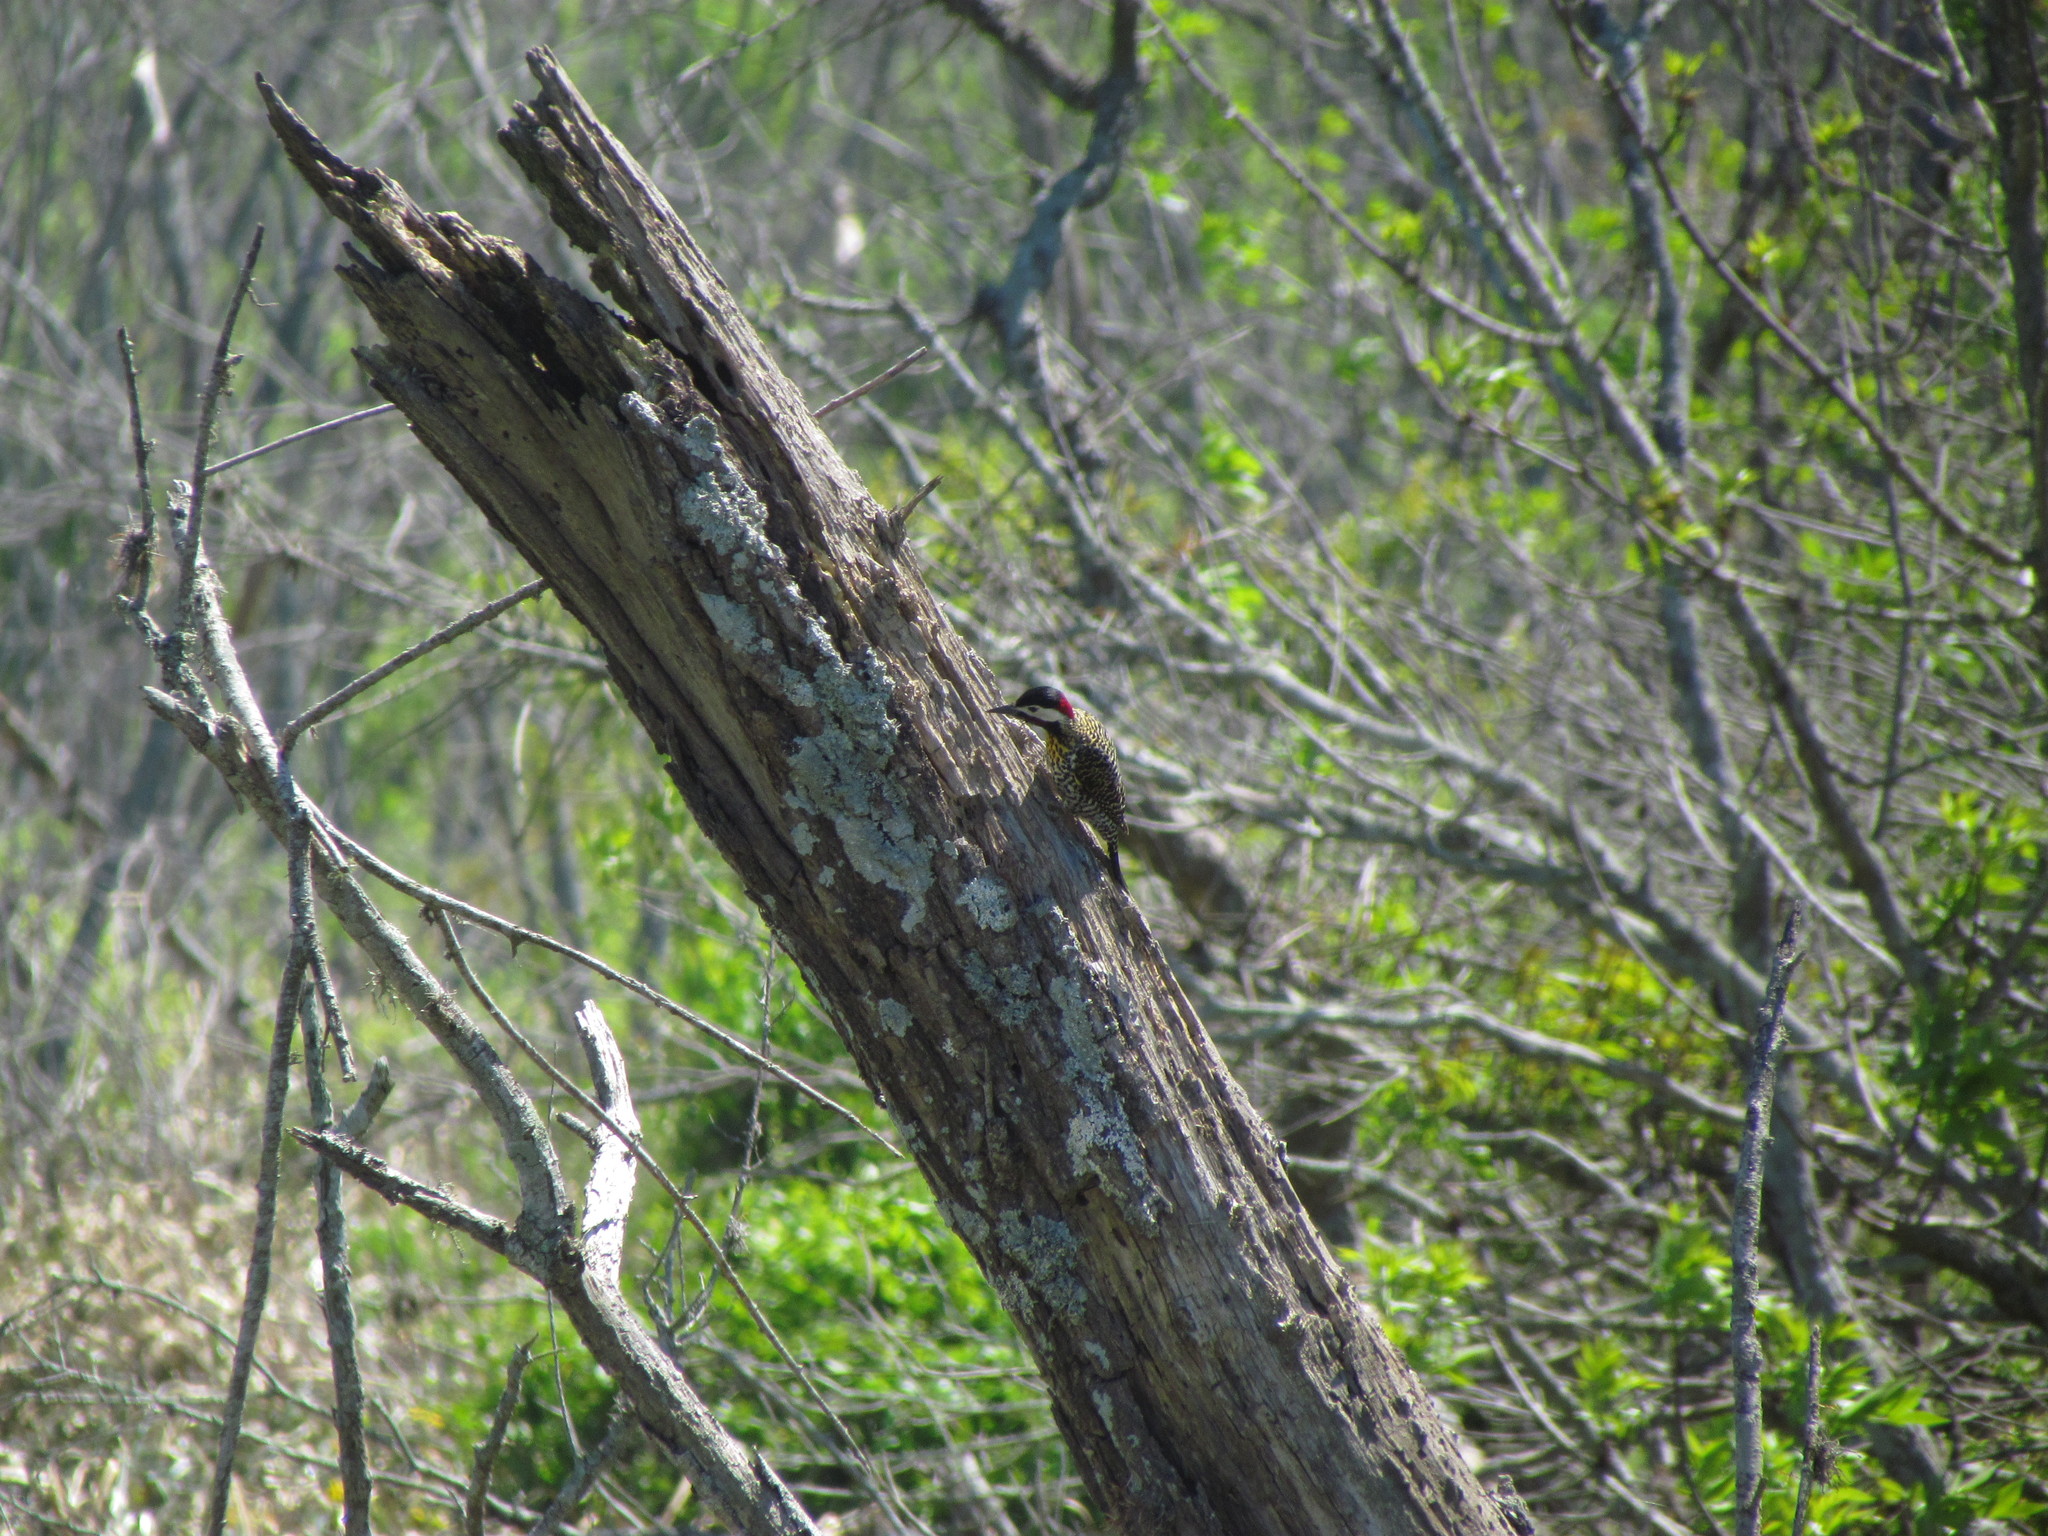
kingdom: Animalia
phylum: Chordata
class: Aves
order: Piciformes
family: Picidae
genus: Colaptes
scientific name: Colaptes melanochloros
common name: Green-barred woodpecker
